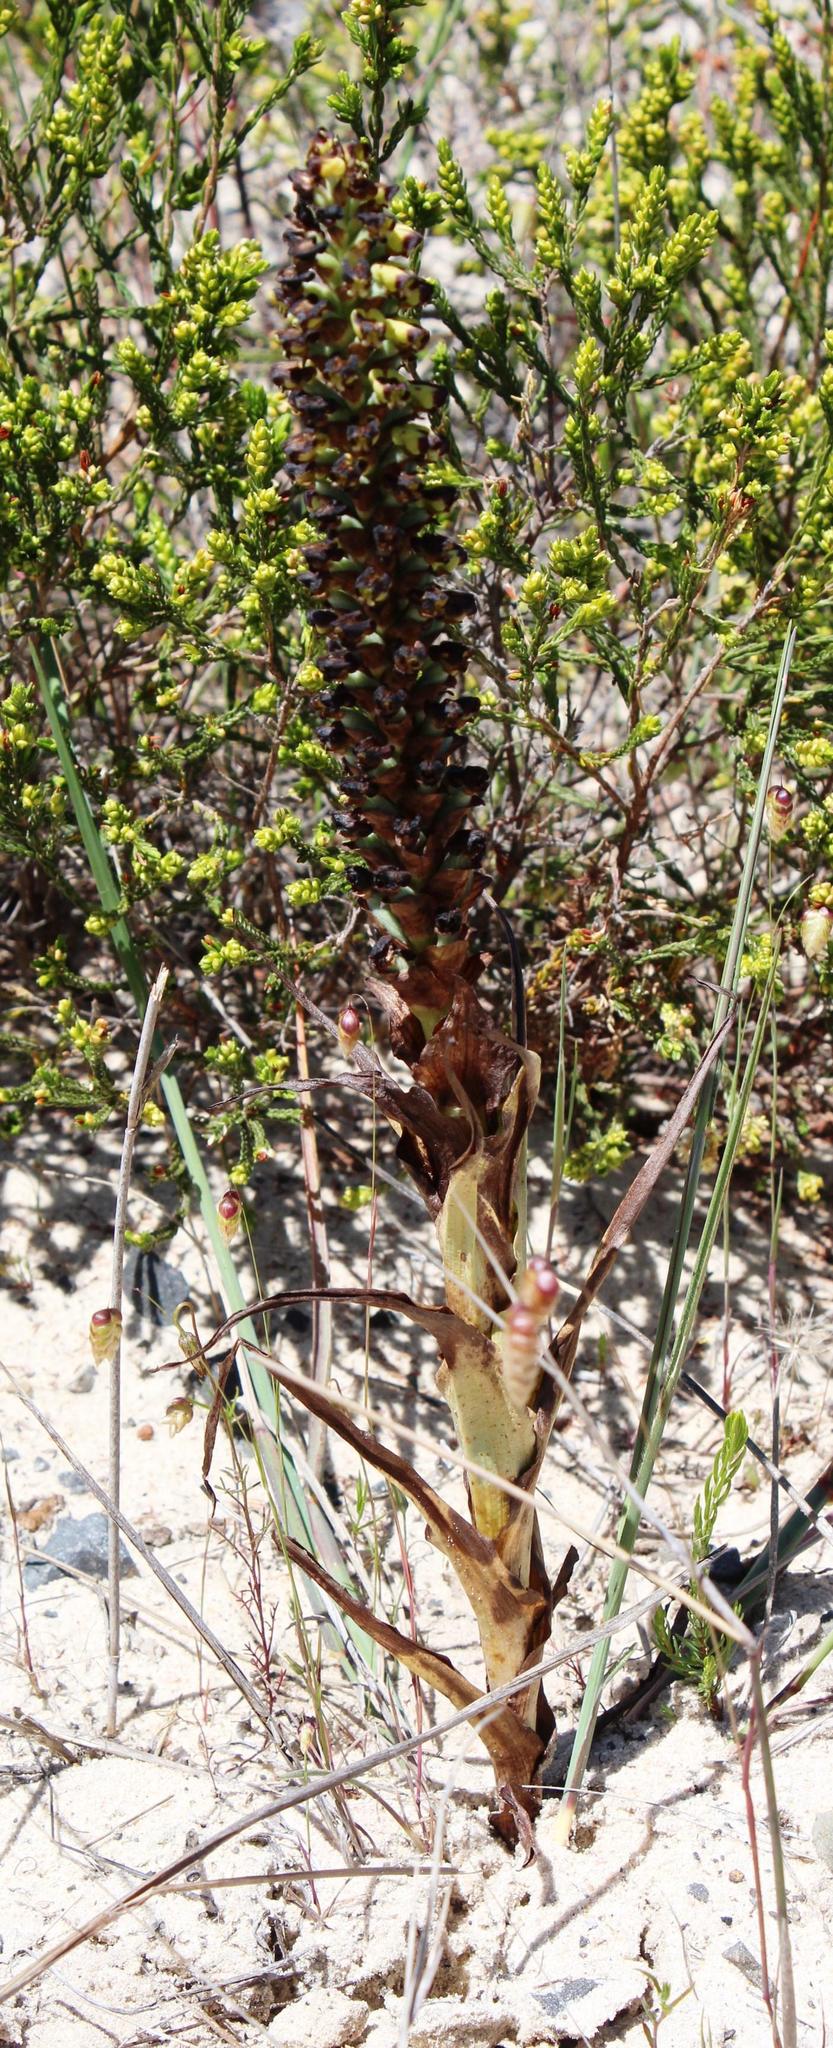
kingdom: Plantae
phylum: Tracheophyta
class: Liliopsida
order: Asparagales
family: Orchidaceae
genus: Corycium
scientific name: Corycium orobanchoides
